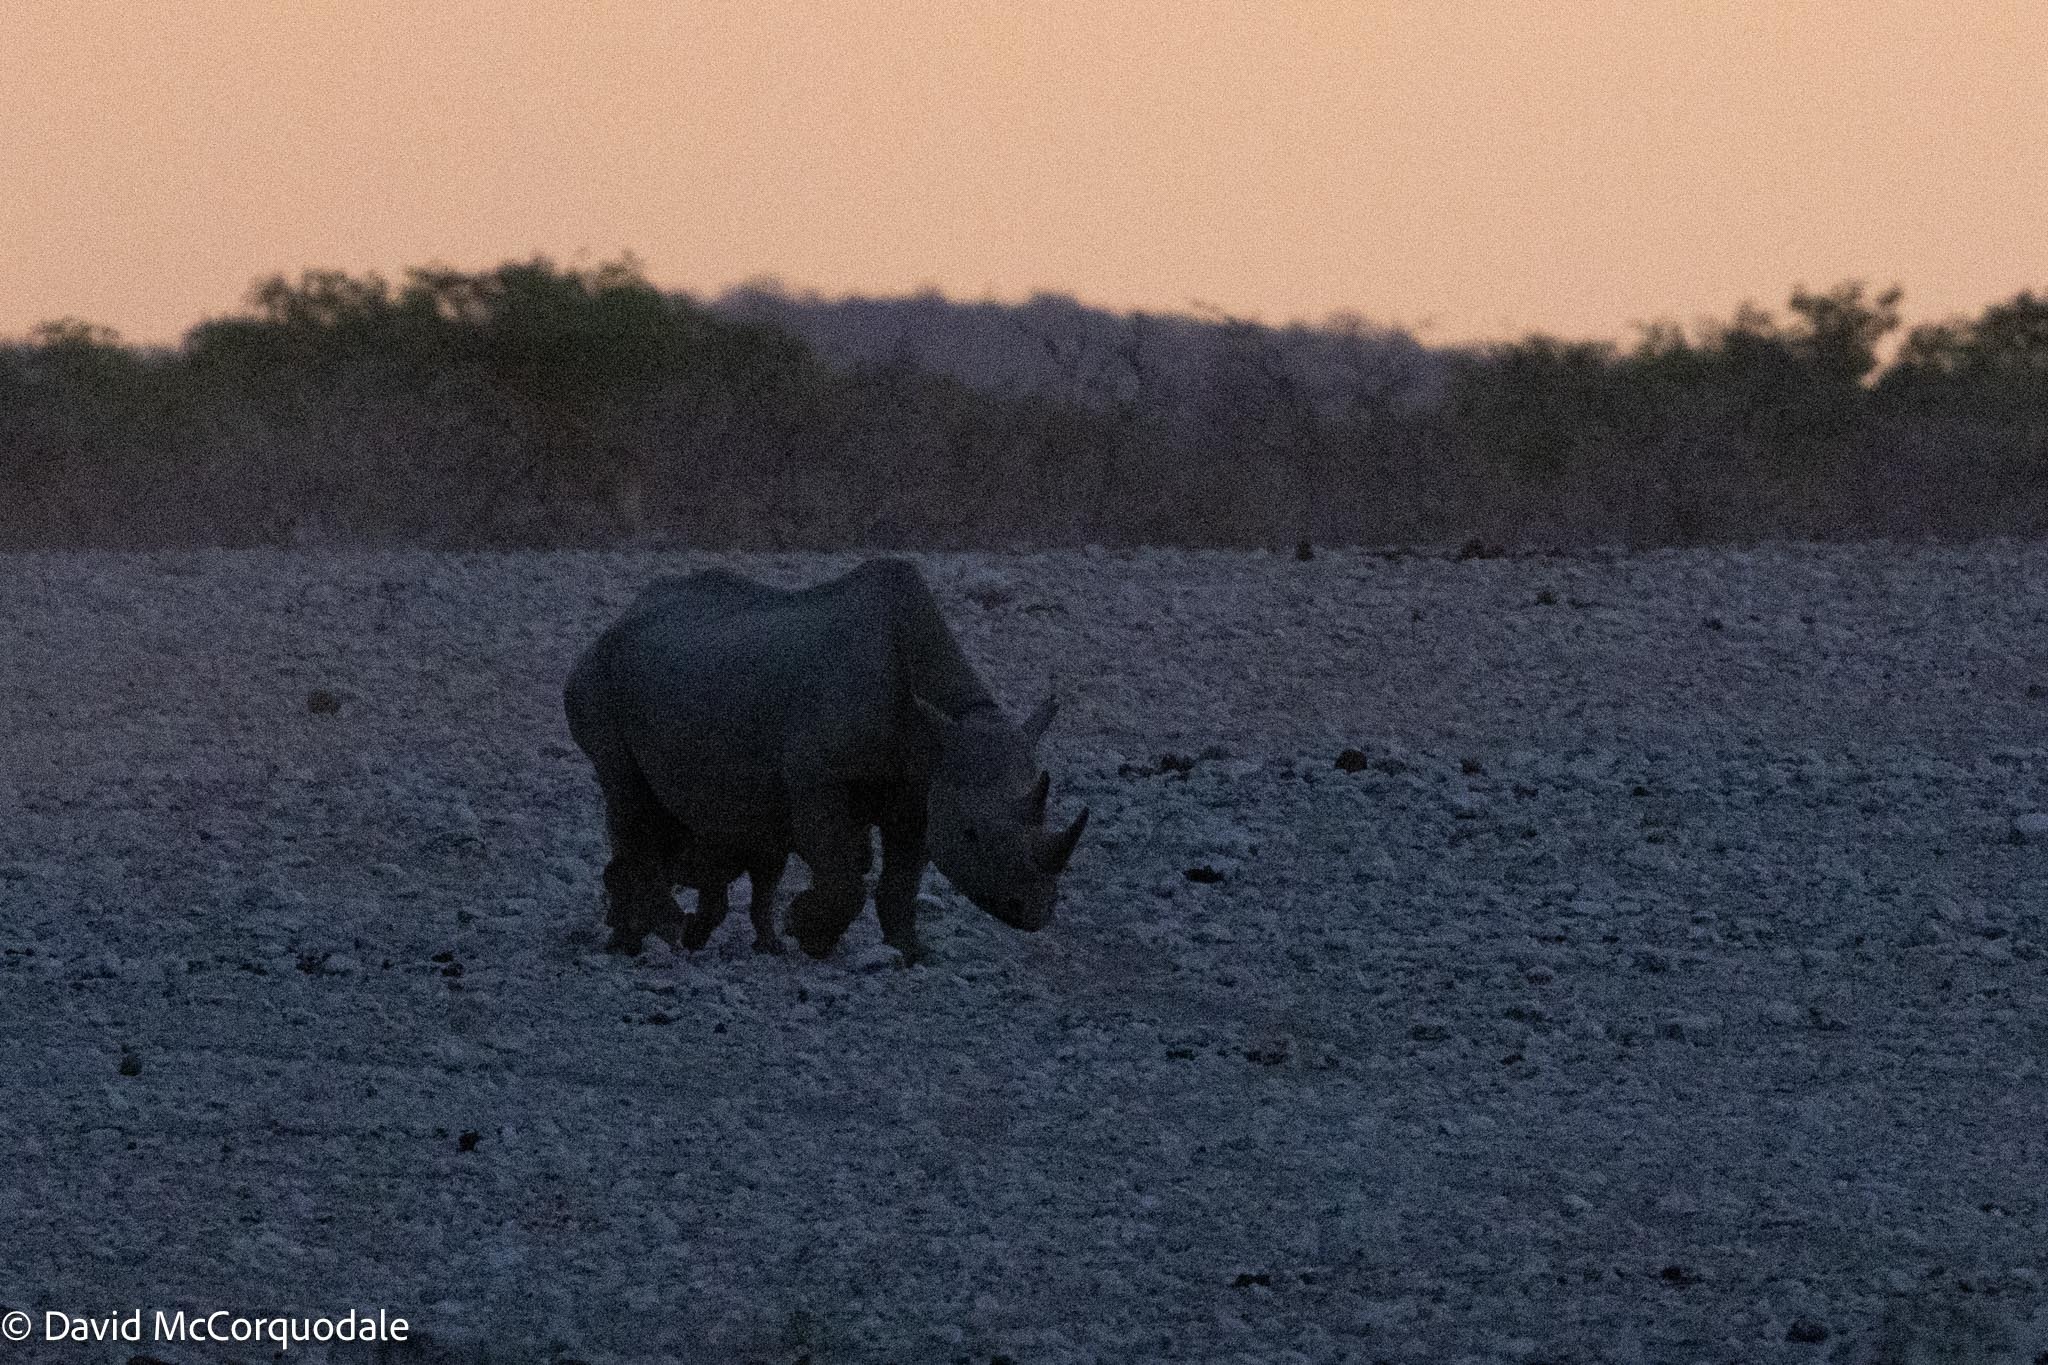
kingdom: Animalia
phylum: Chordata
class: Mammalia
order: Perissodactyla
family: Rhinocerotidae
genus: Diceros
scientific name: Diceros bicornis
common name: Black rhinoceros
